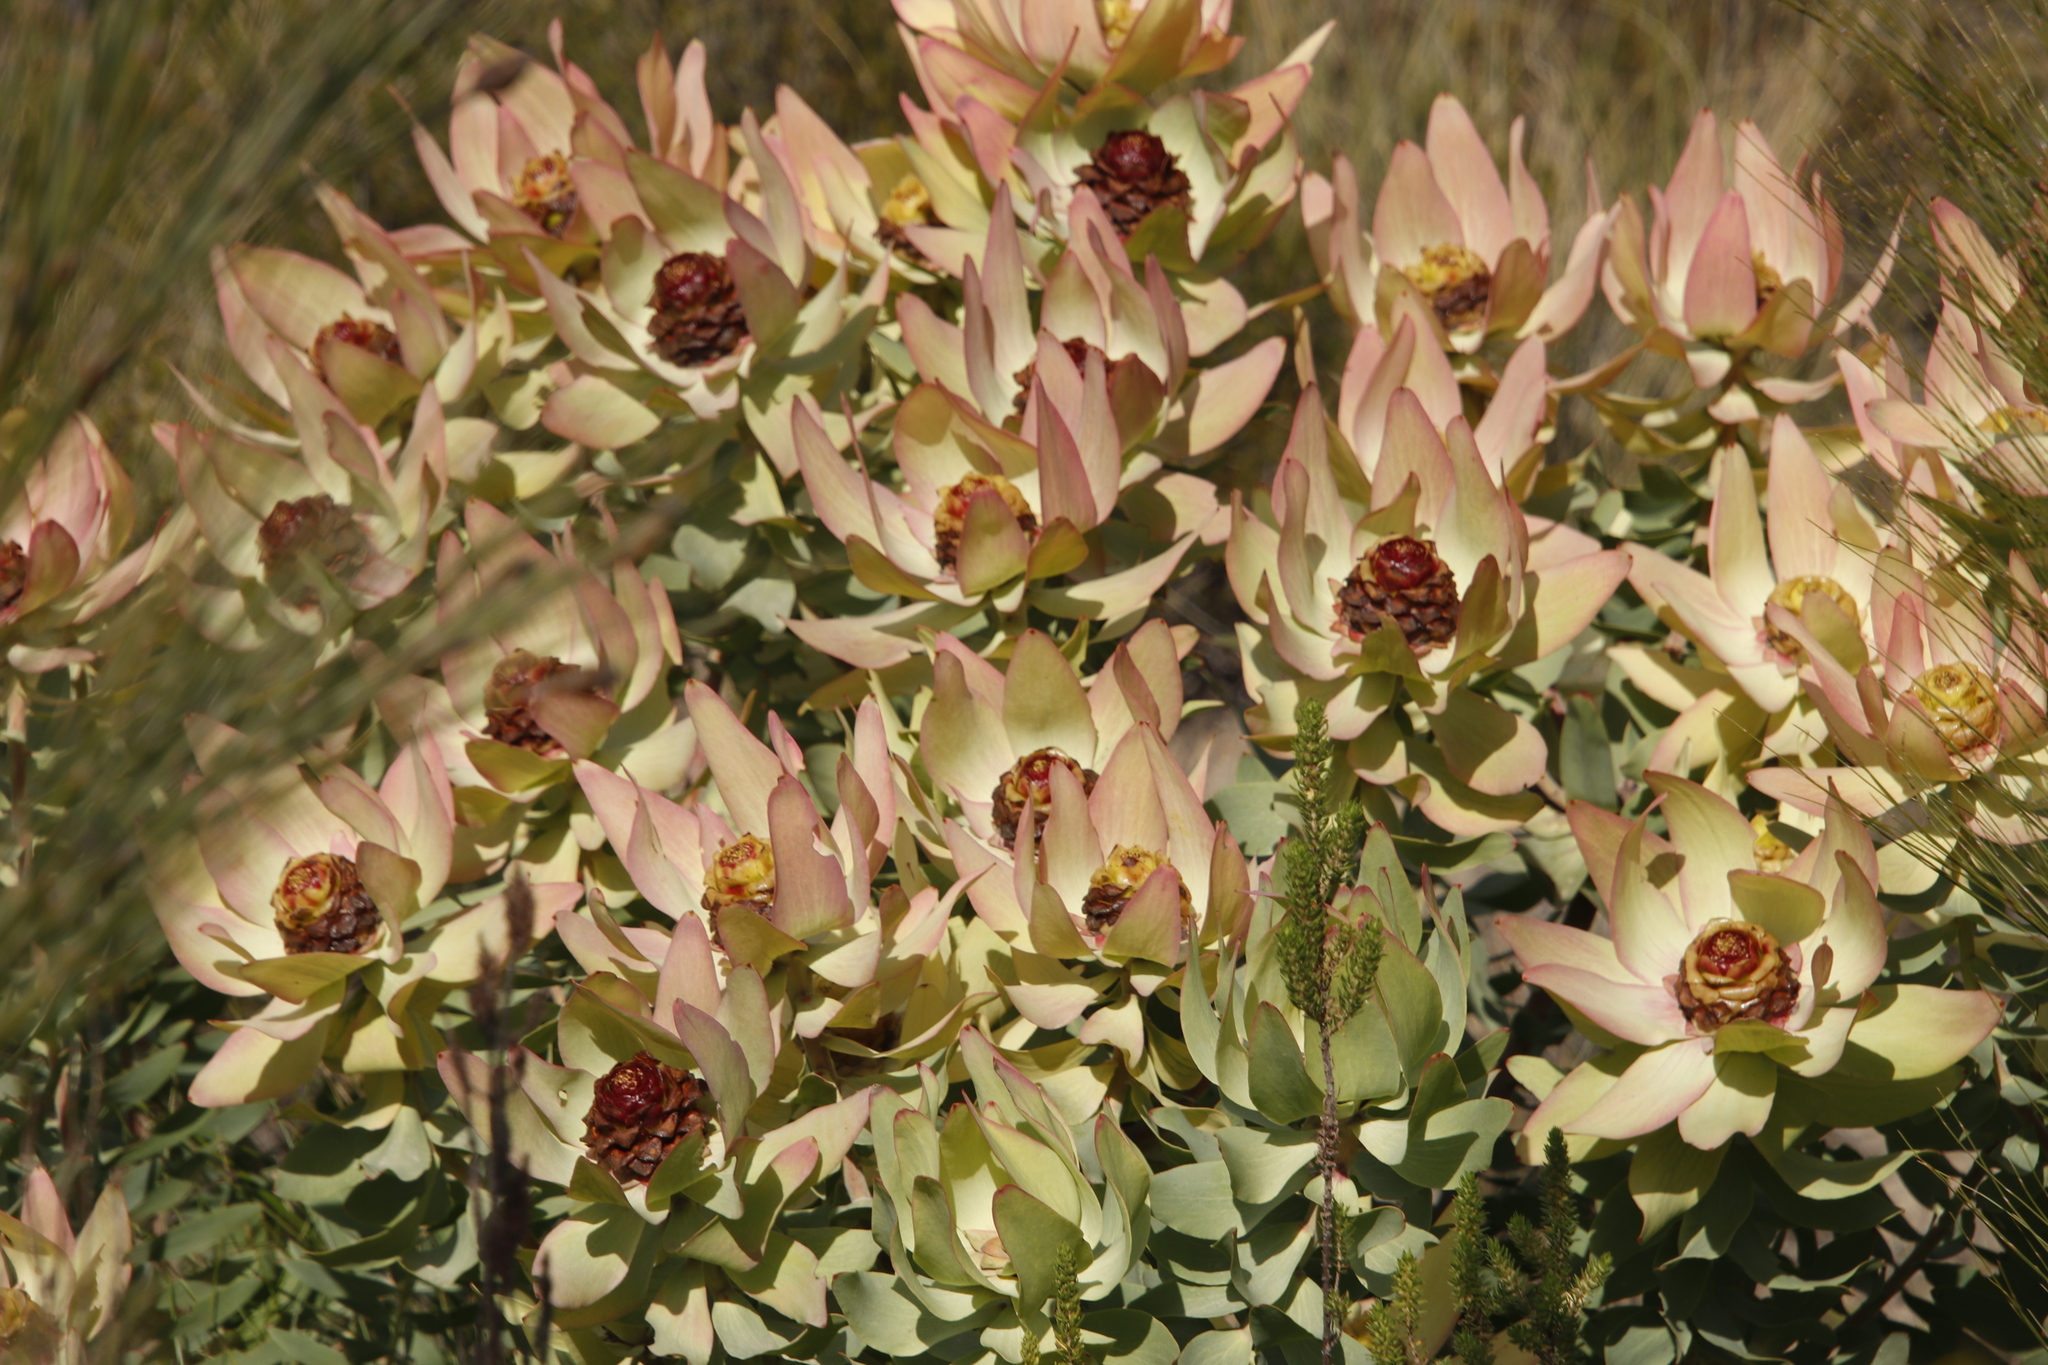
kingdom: Plantae
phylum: Tracheophyta
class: Magnoliopsida
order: Proteales
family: Proteaceae
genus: Leucadendron
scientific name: Leucadendron tinctum
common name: Spicy conebush
